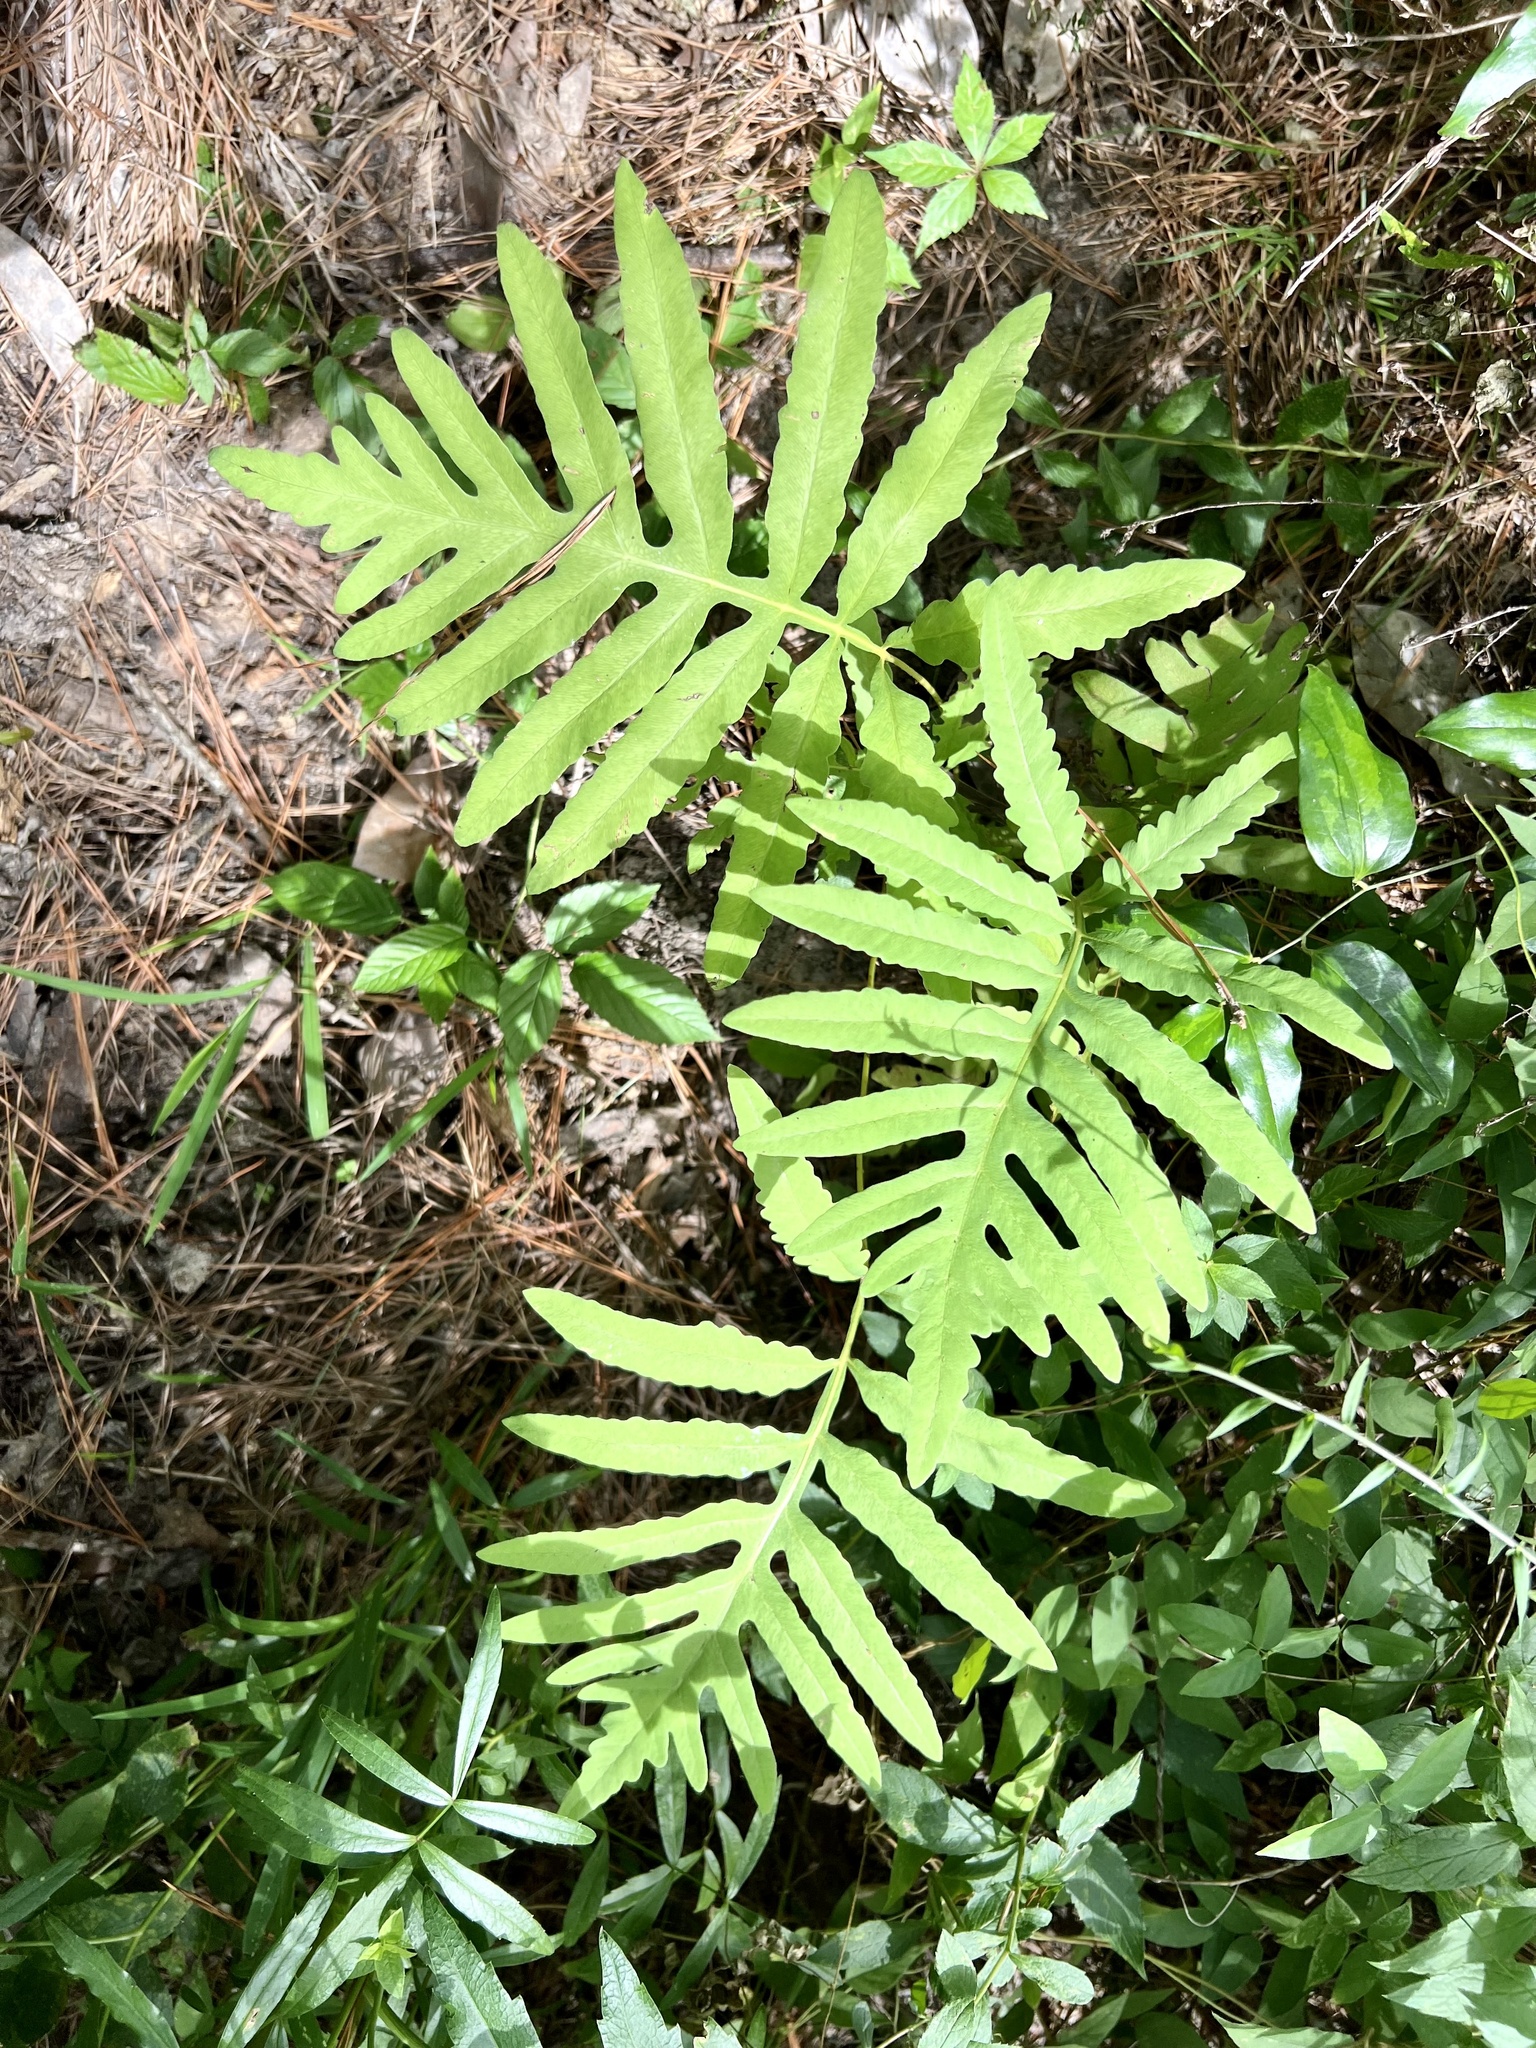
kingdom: Plantae
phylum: Tracheophyta
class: Polypodiopsida
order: Polypodiales
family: Onocleaceae
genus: Onoclea
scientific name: Onoclea sensibilis
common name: Sensitive fern
